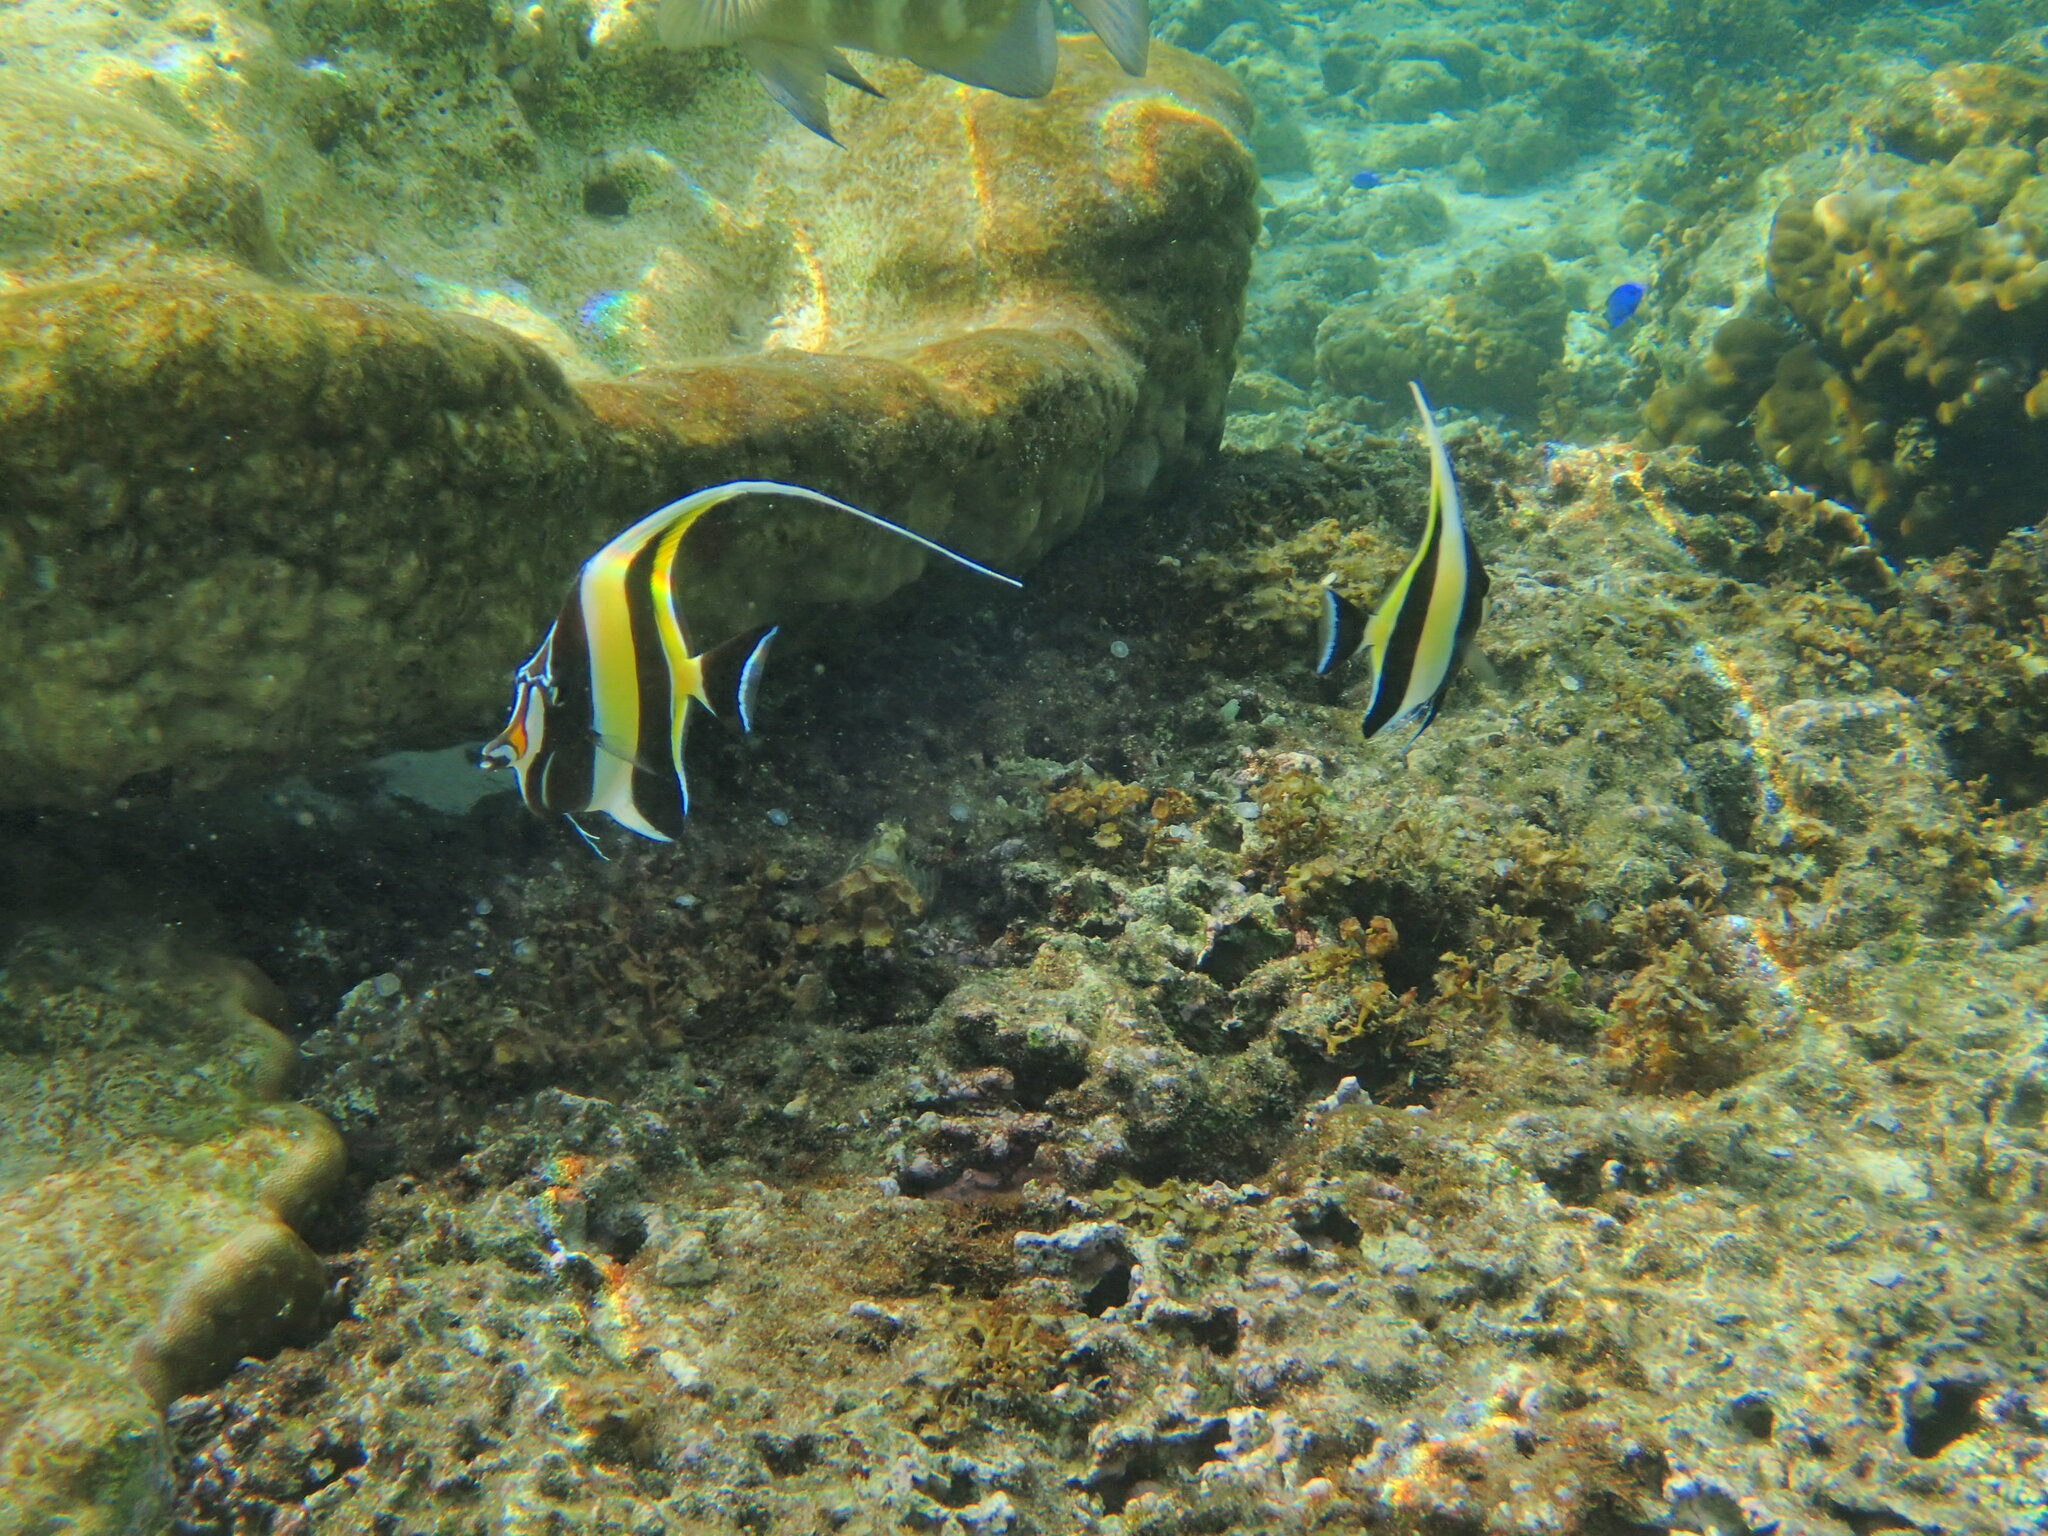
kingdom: Animalia
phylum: Chordata
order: Perciformes
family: Zanclidae
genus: Zanclus
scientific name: Zanclus cornutus
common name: Moorish idol
